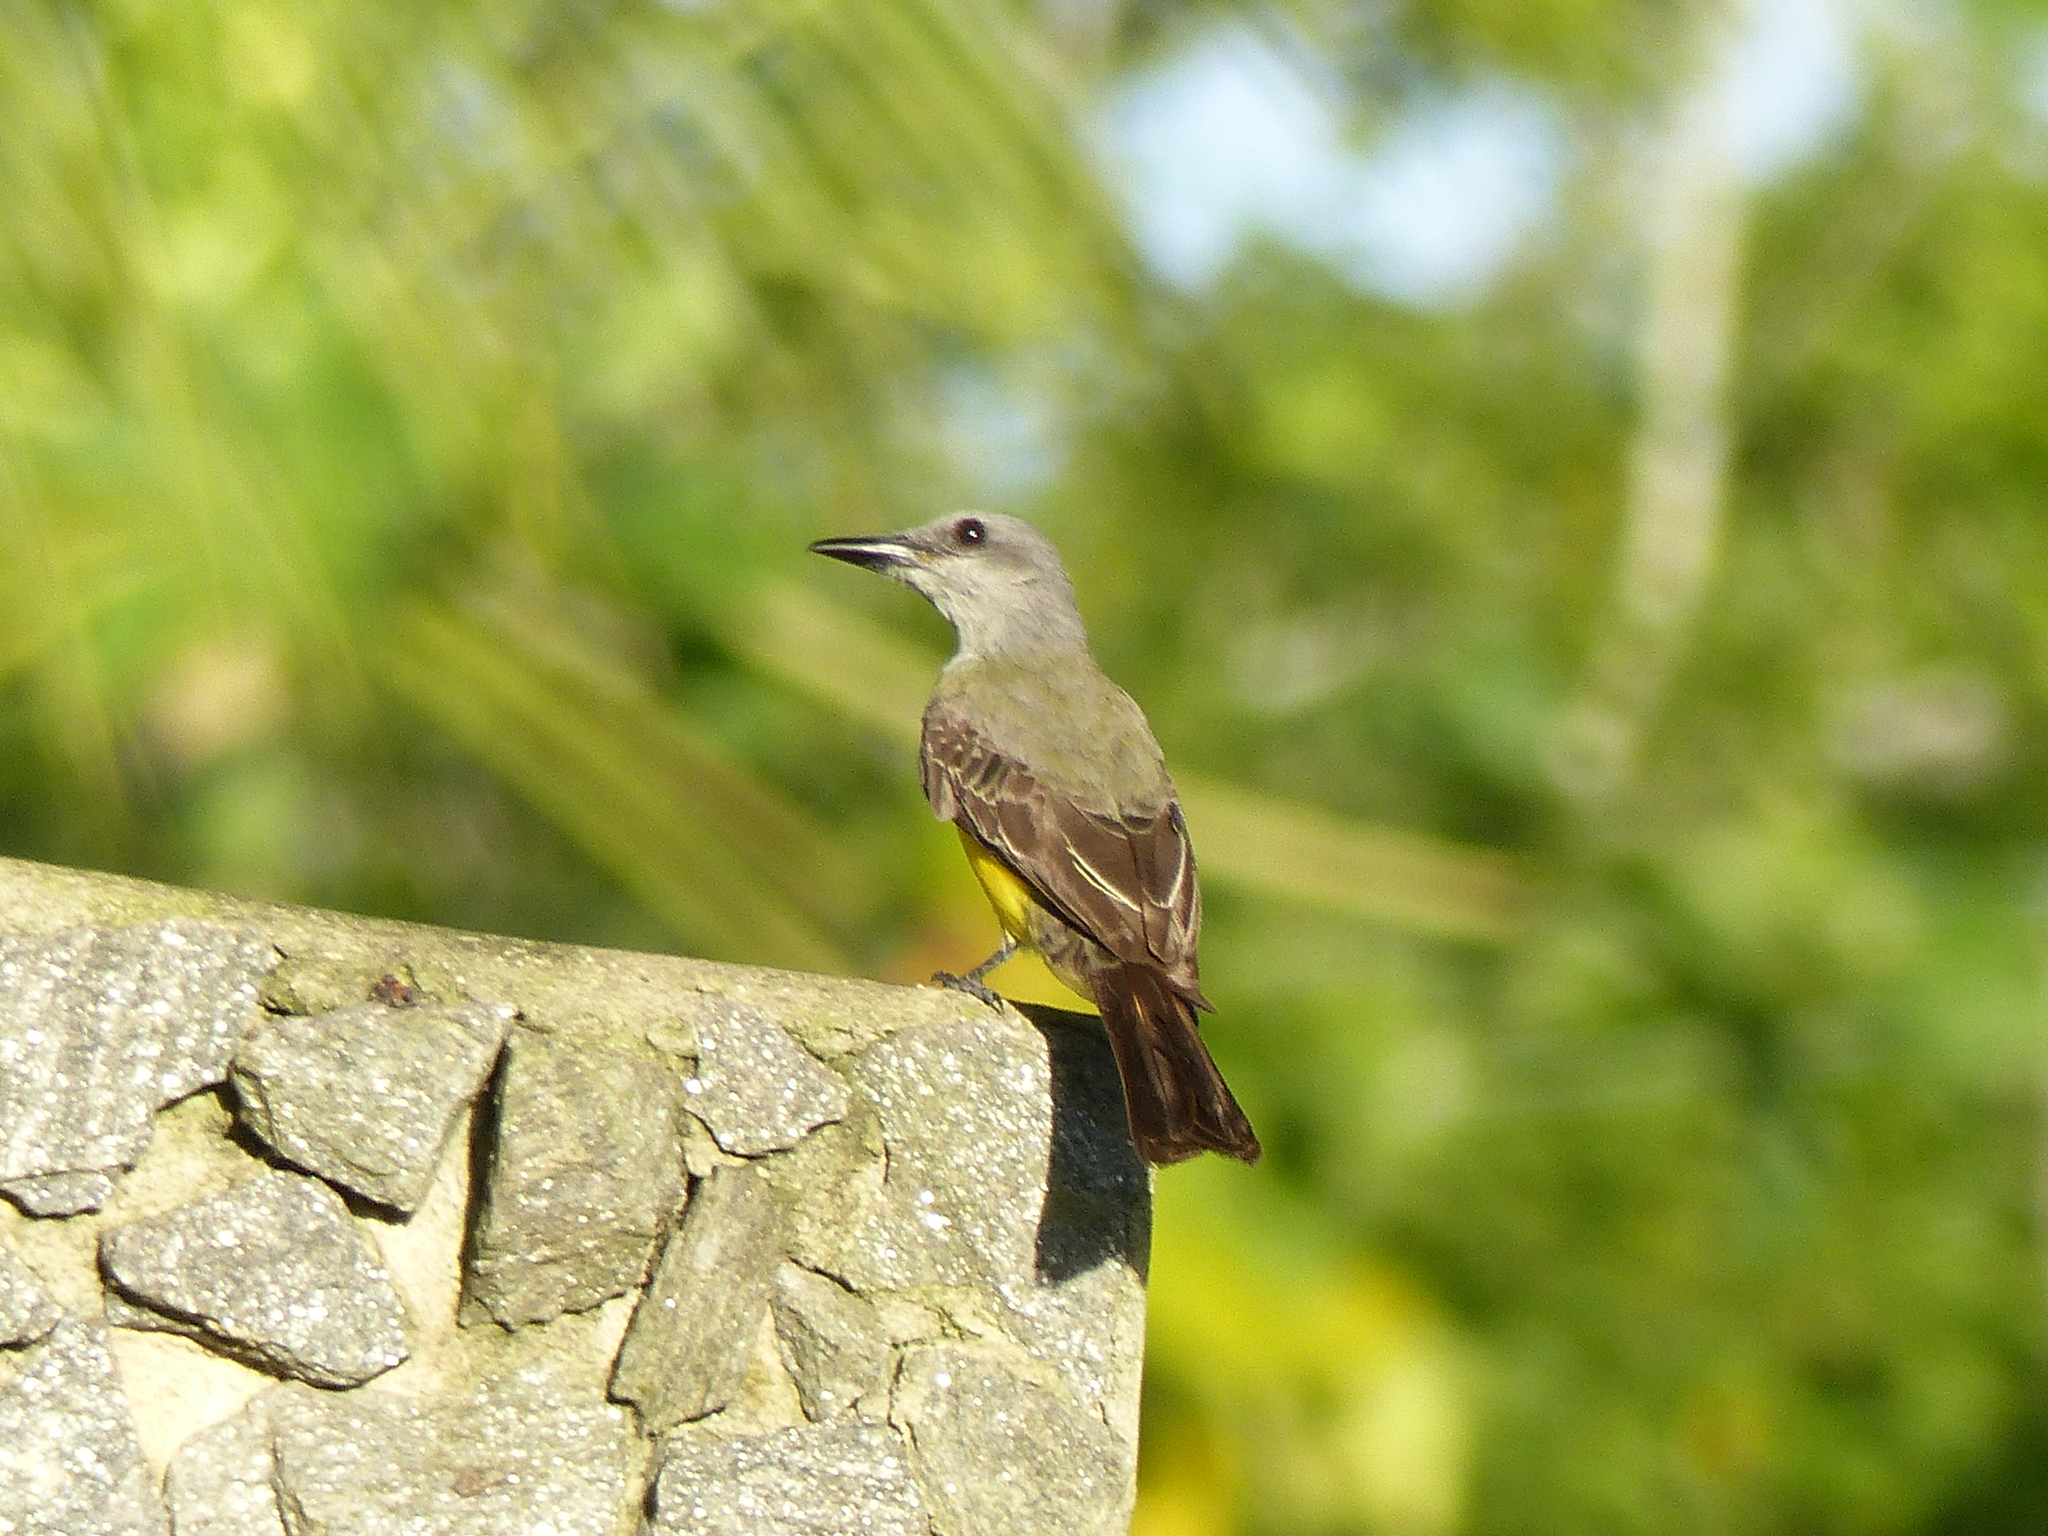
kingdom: Animalia
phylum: Chordata
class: Aves
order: Passeriformes
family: Tyrannidae
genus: Machetornis
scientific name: Machetornis rixosa
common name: Cattle tyrant
